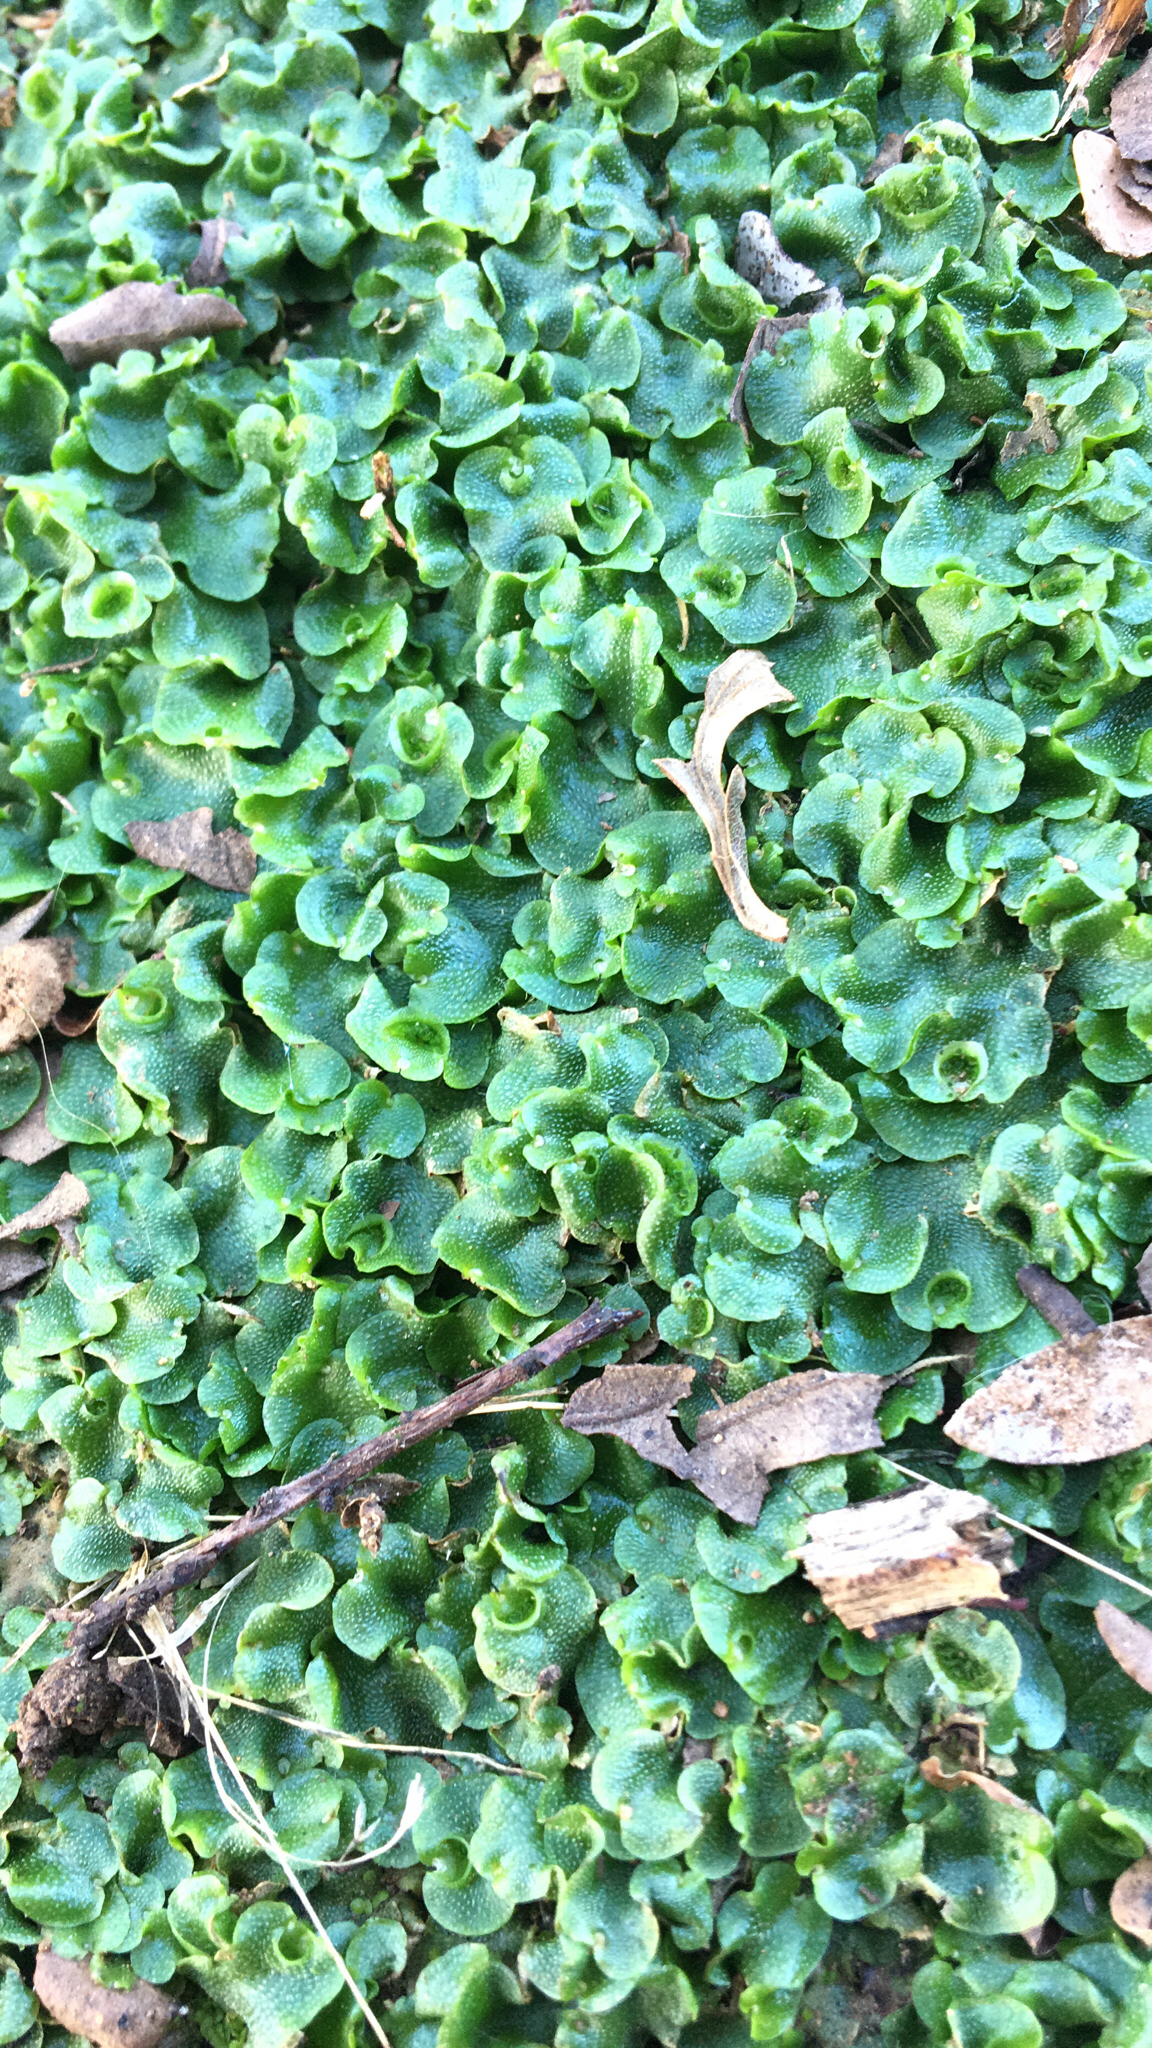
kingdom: Plantae
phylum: Marchantiophyta
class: Marchantiopsida
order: Lunulariales
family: Lunulariaceae
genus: Lunularia
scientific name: Lunularia cruciata
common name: Crescent-cup liverwort
